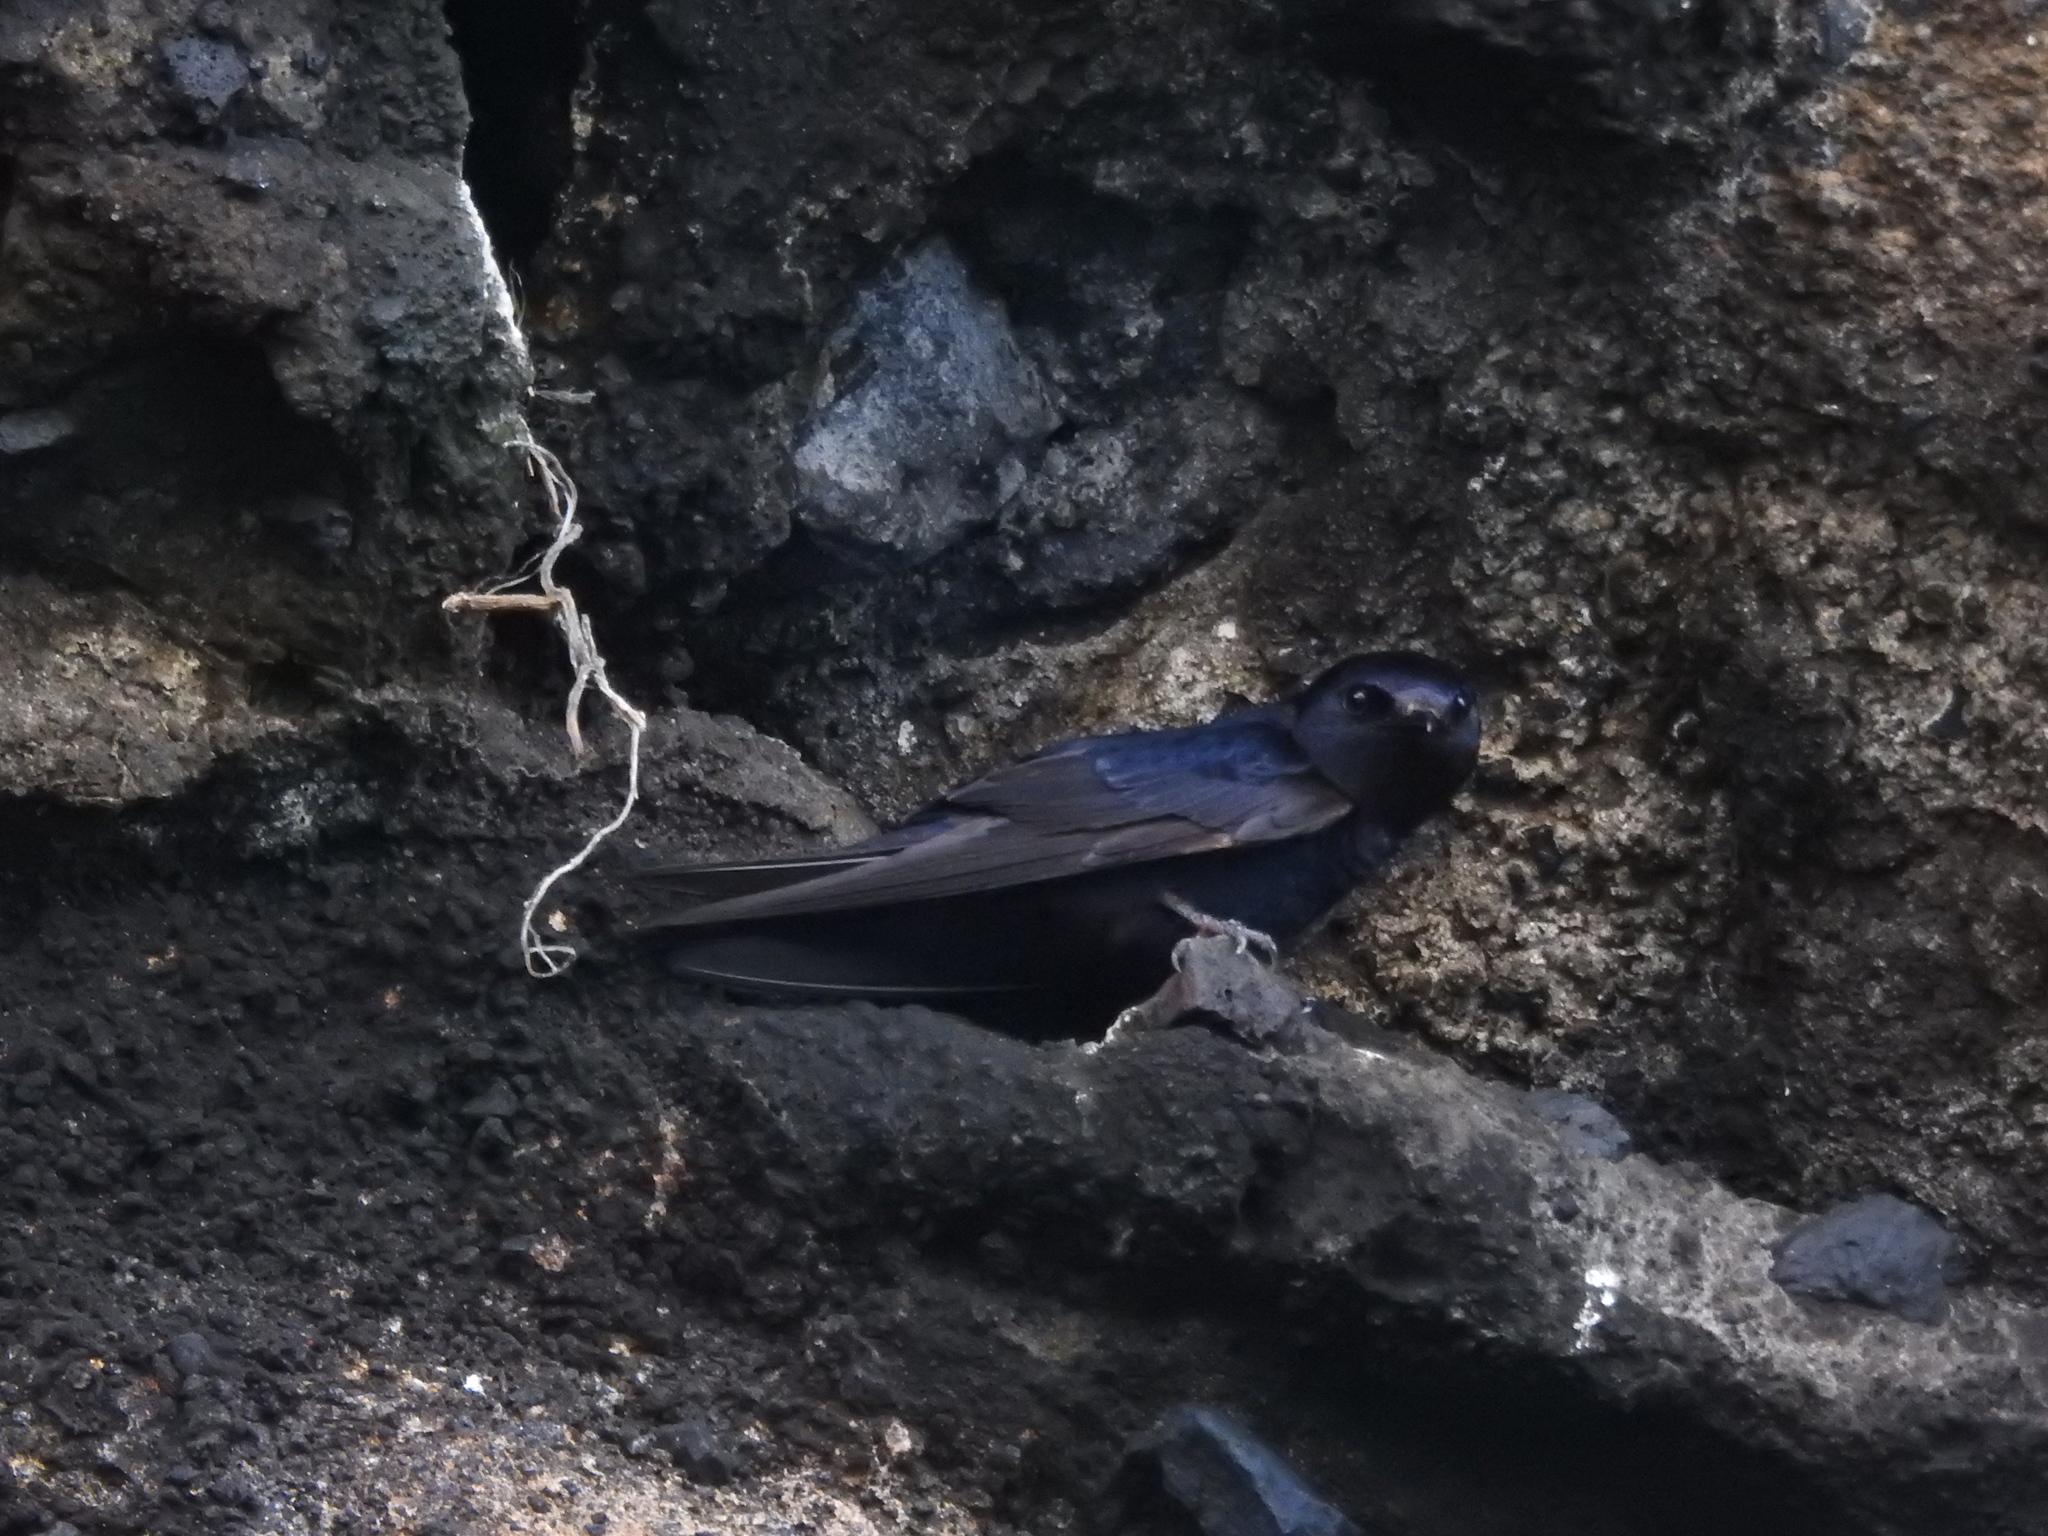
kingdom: Animalia
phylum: Chordata
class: Aves
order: Passeriformes
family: Hirundinidae
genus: Progne
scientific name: Progne modesta
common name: Galapagos martin
